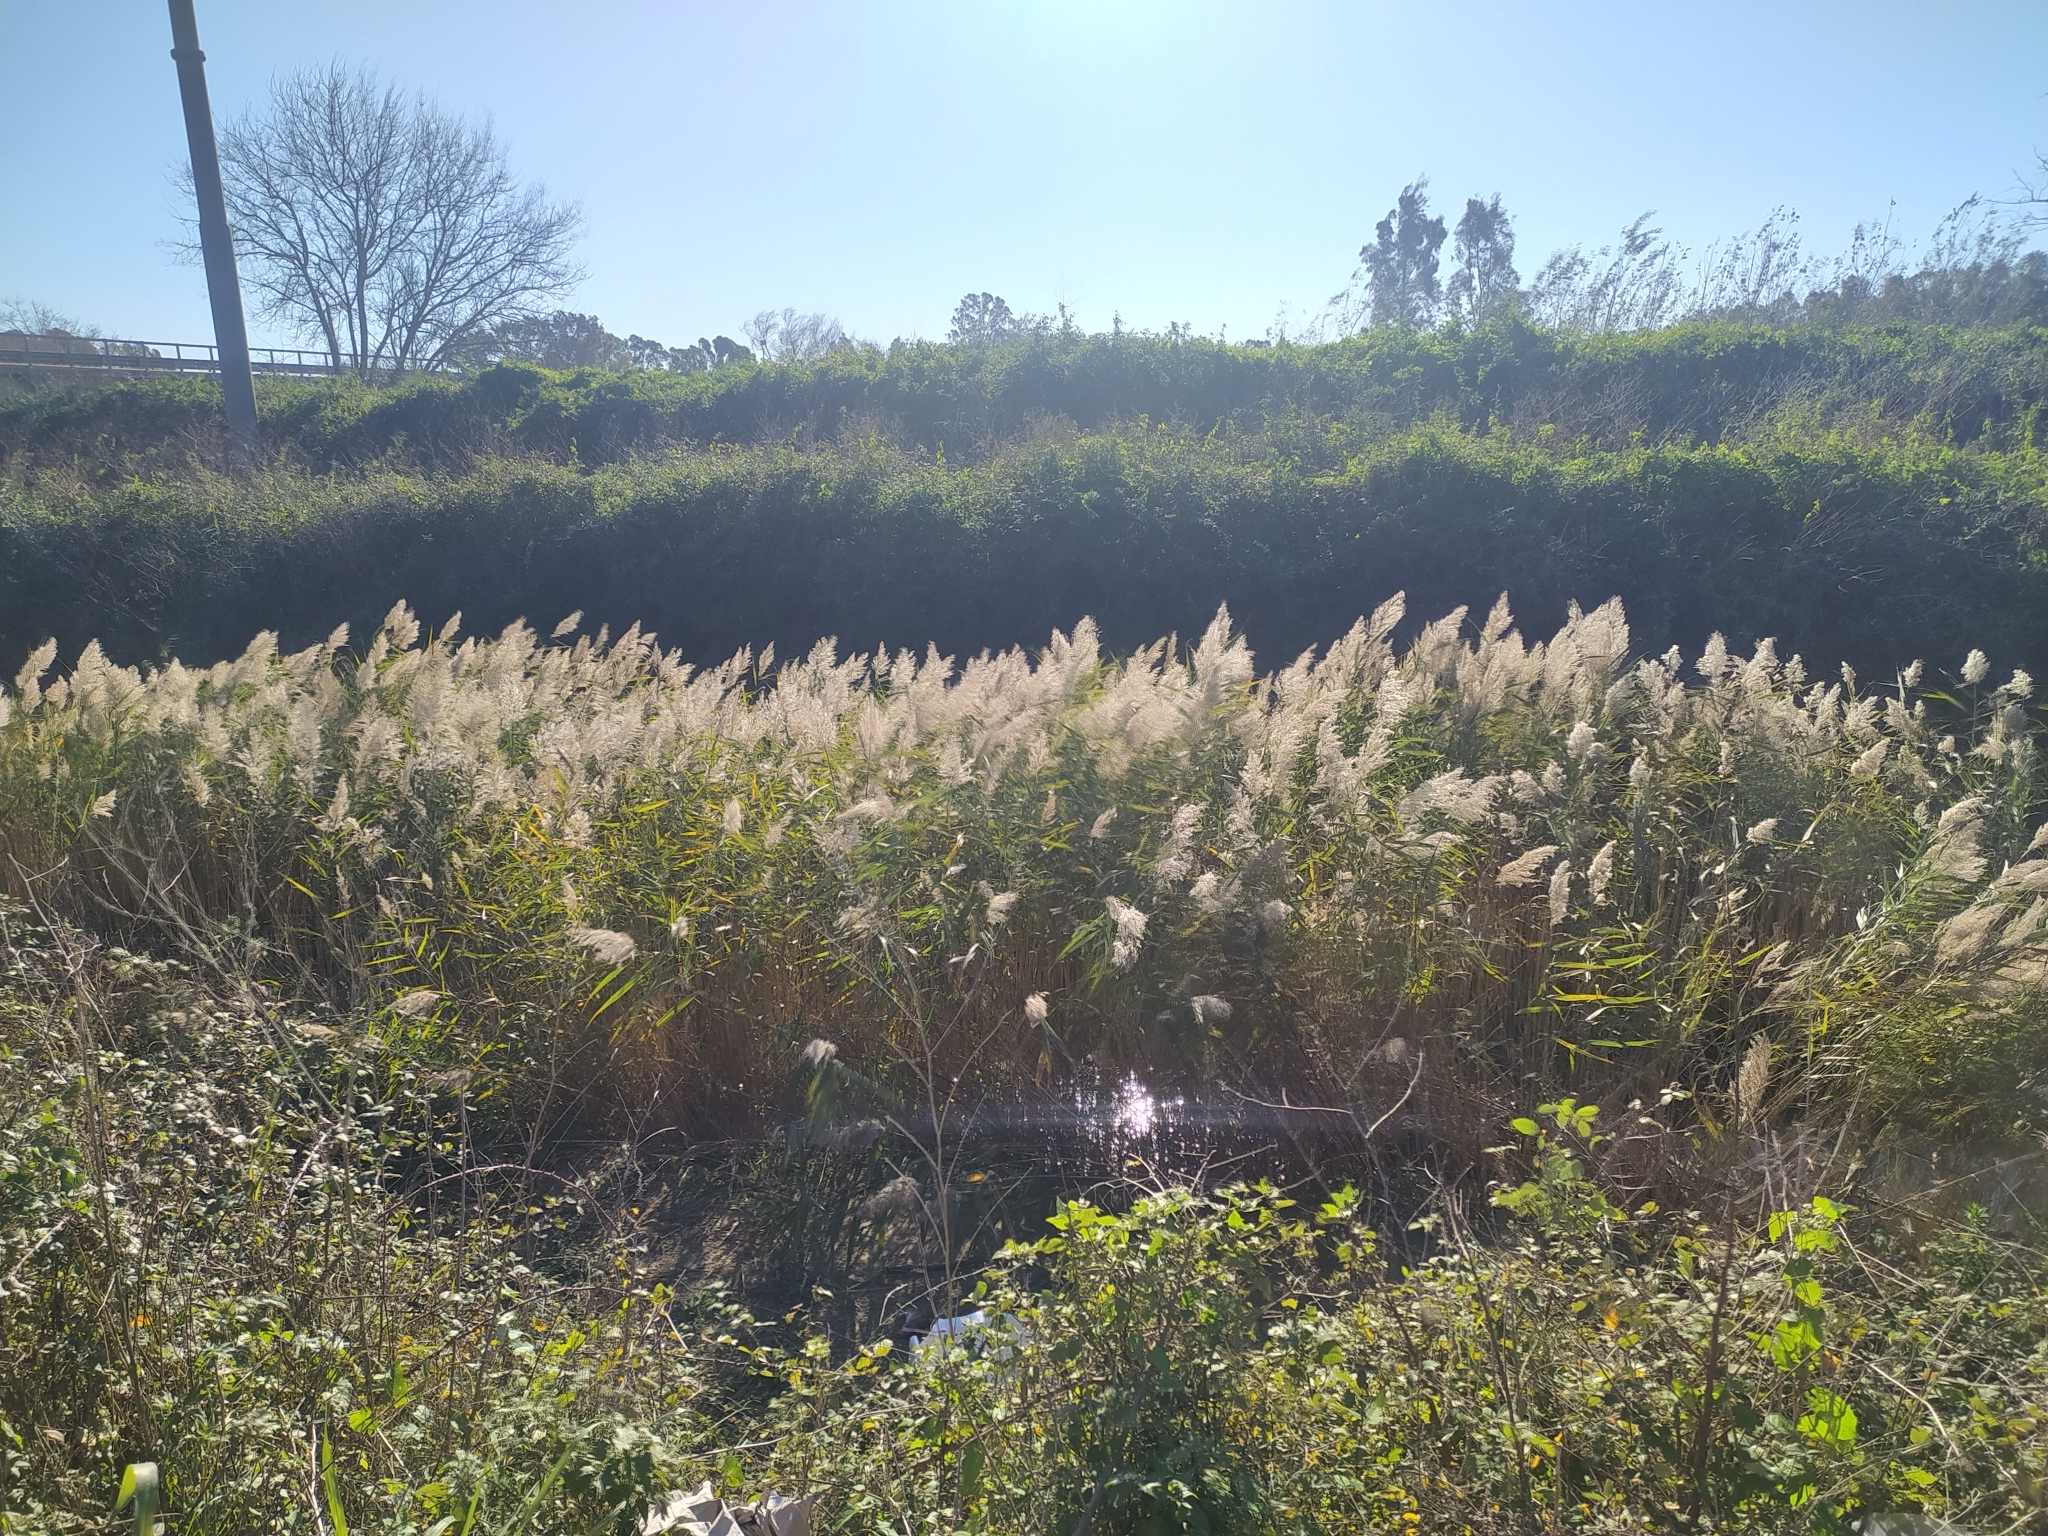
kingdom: Plantae
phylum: Tracheophyta
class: Liliopsida
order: Poales
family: Poaceae
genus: Phragmites
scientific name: Phragmites australis
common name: Common reed
